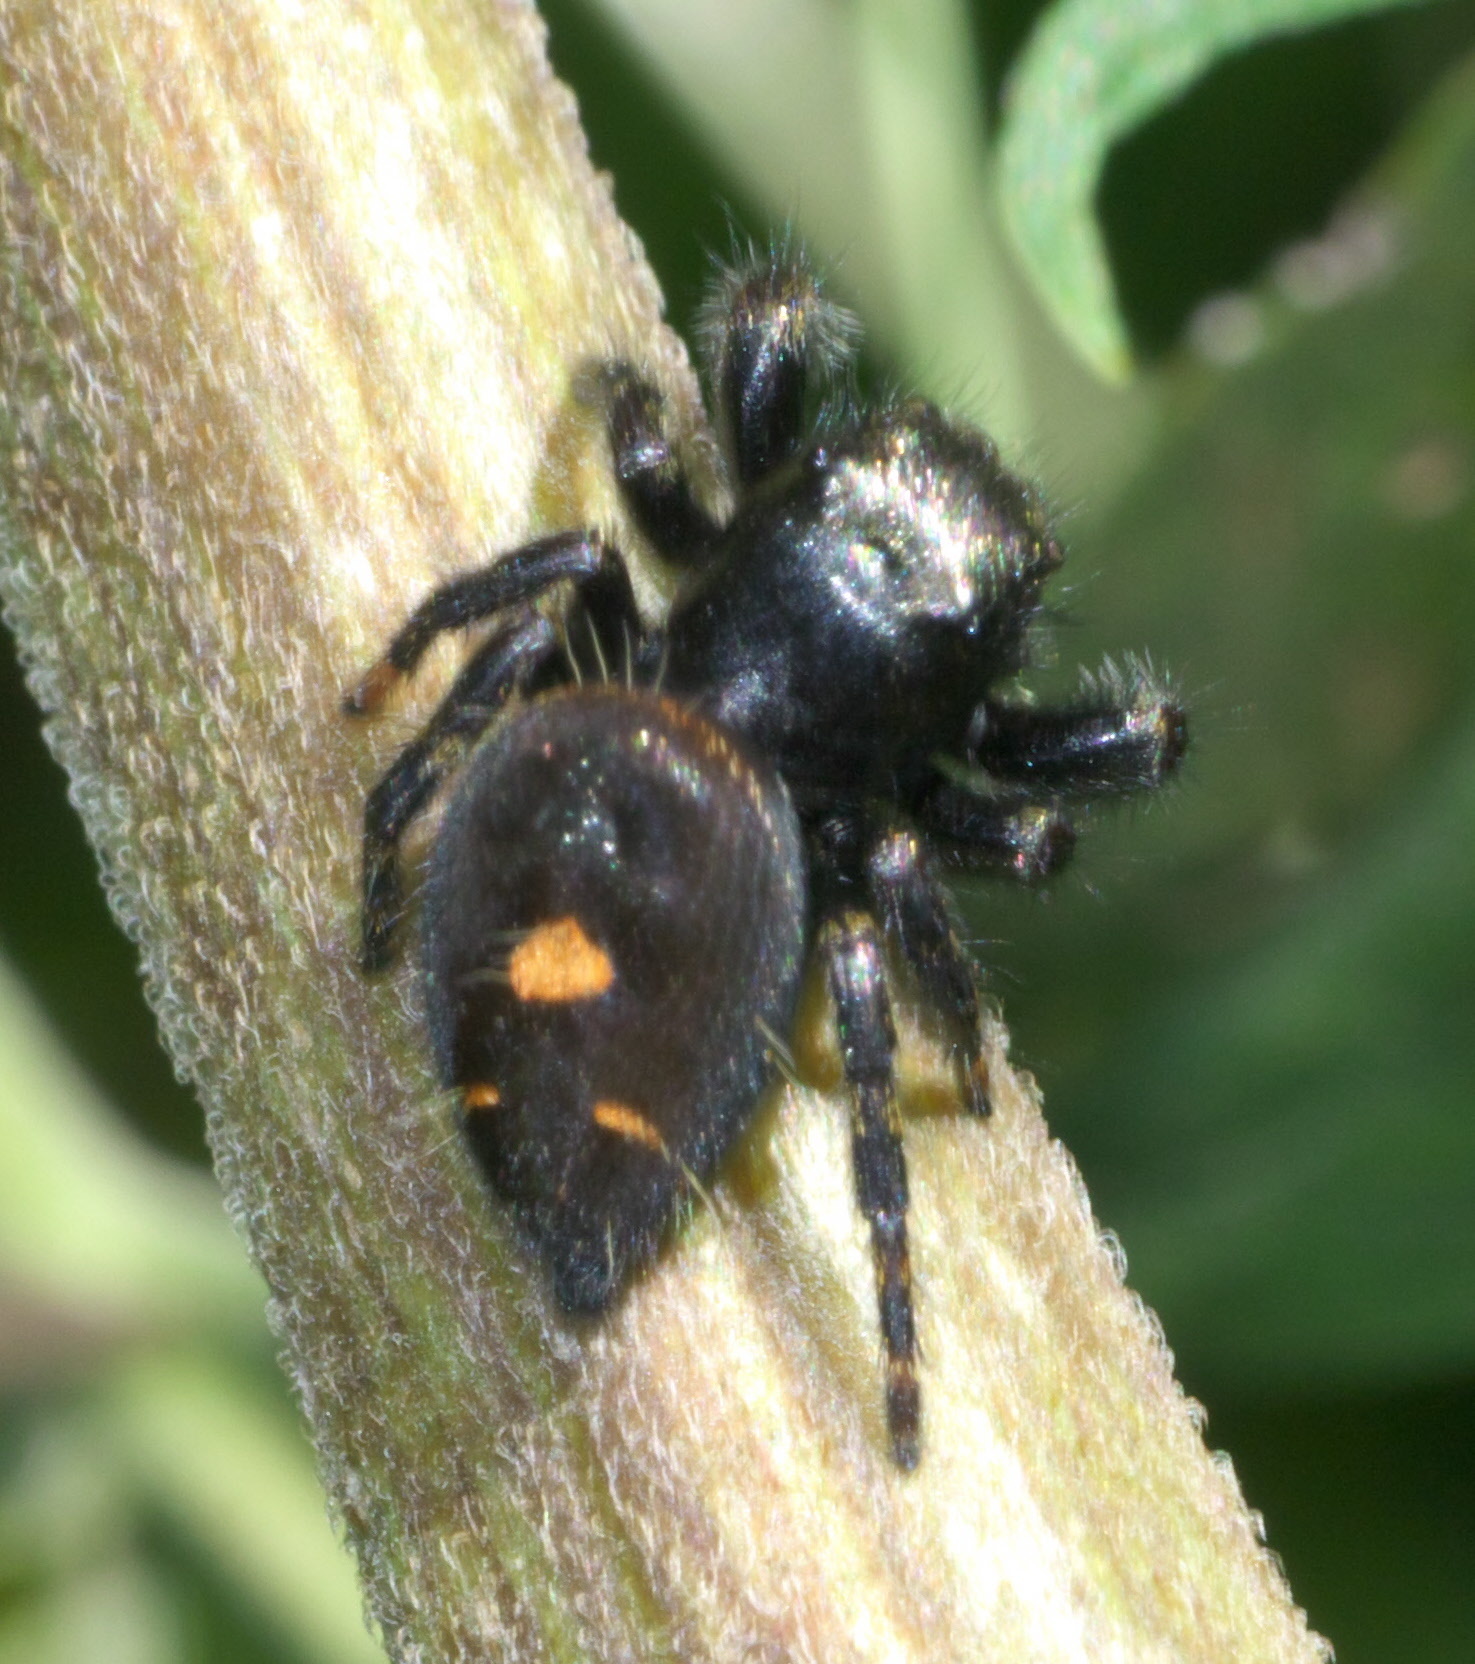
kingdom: Animalia
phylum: Arthropoda
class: Arachnida
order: Araneae
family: Salticidae
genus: Phidippus
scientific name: Phidippus audax
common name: Bold jumper
